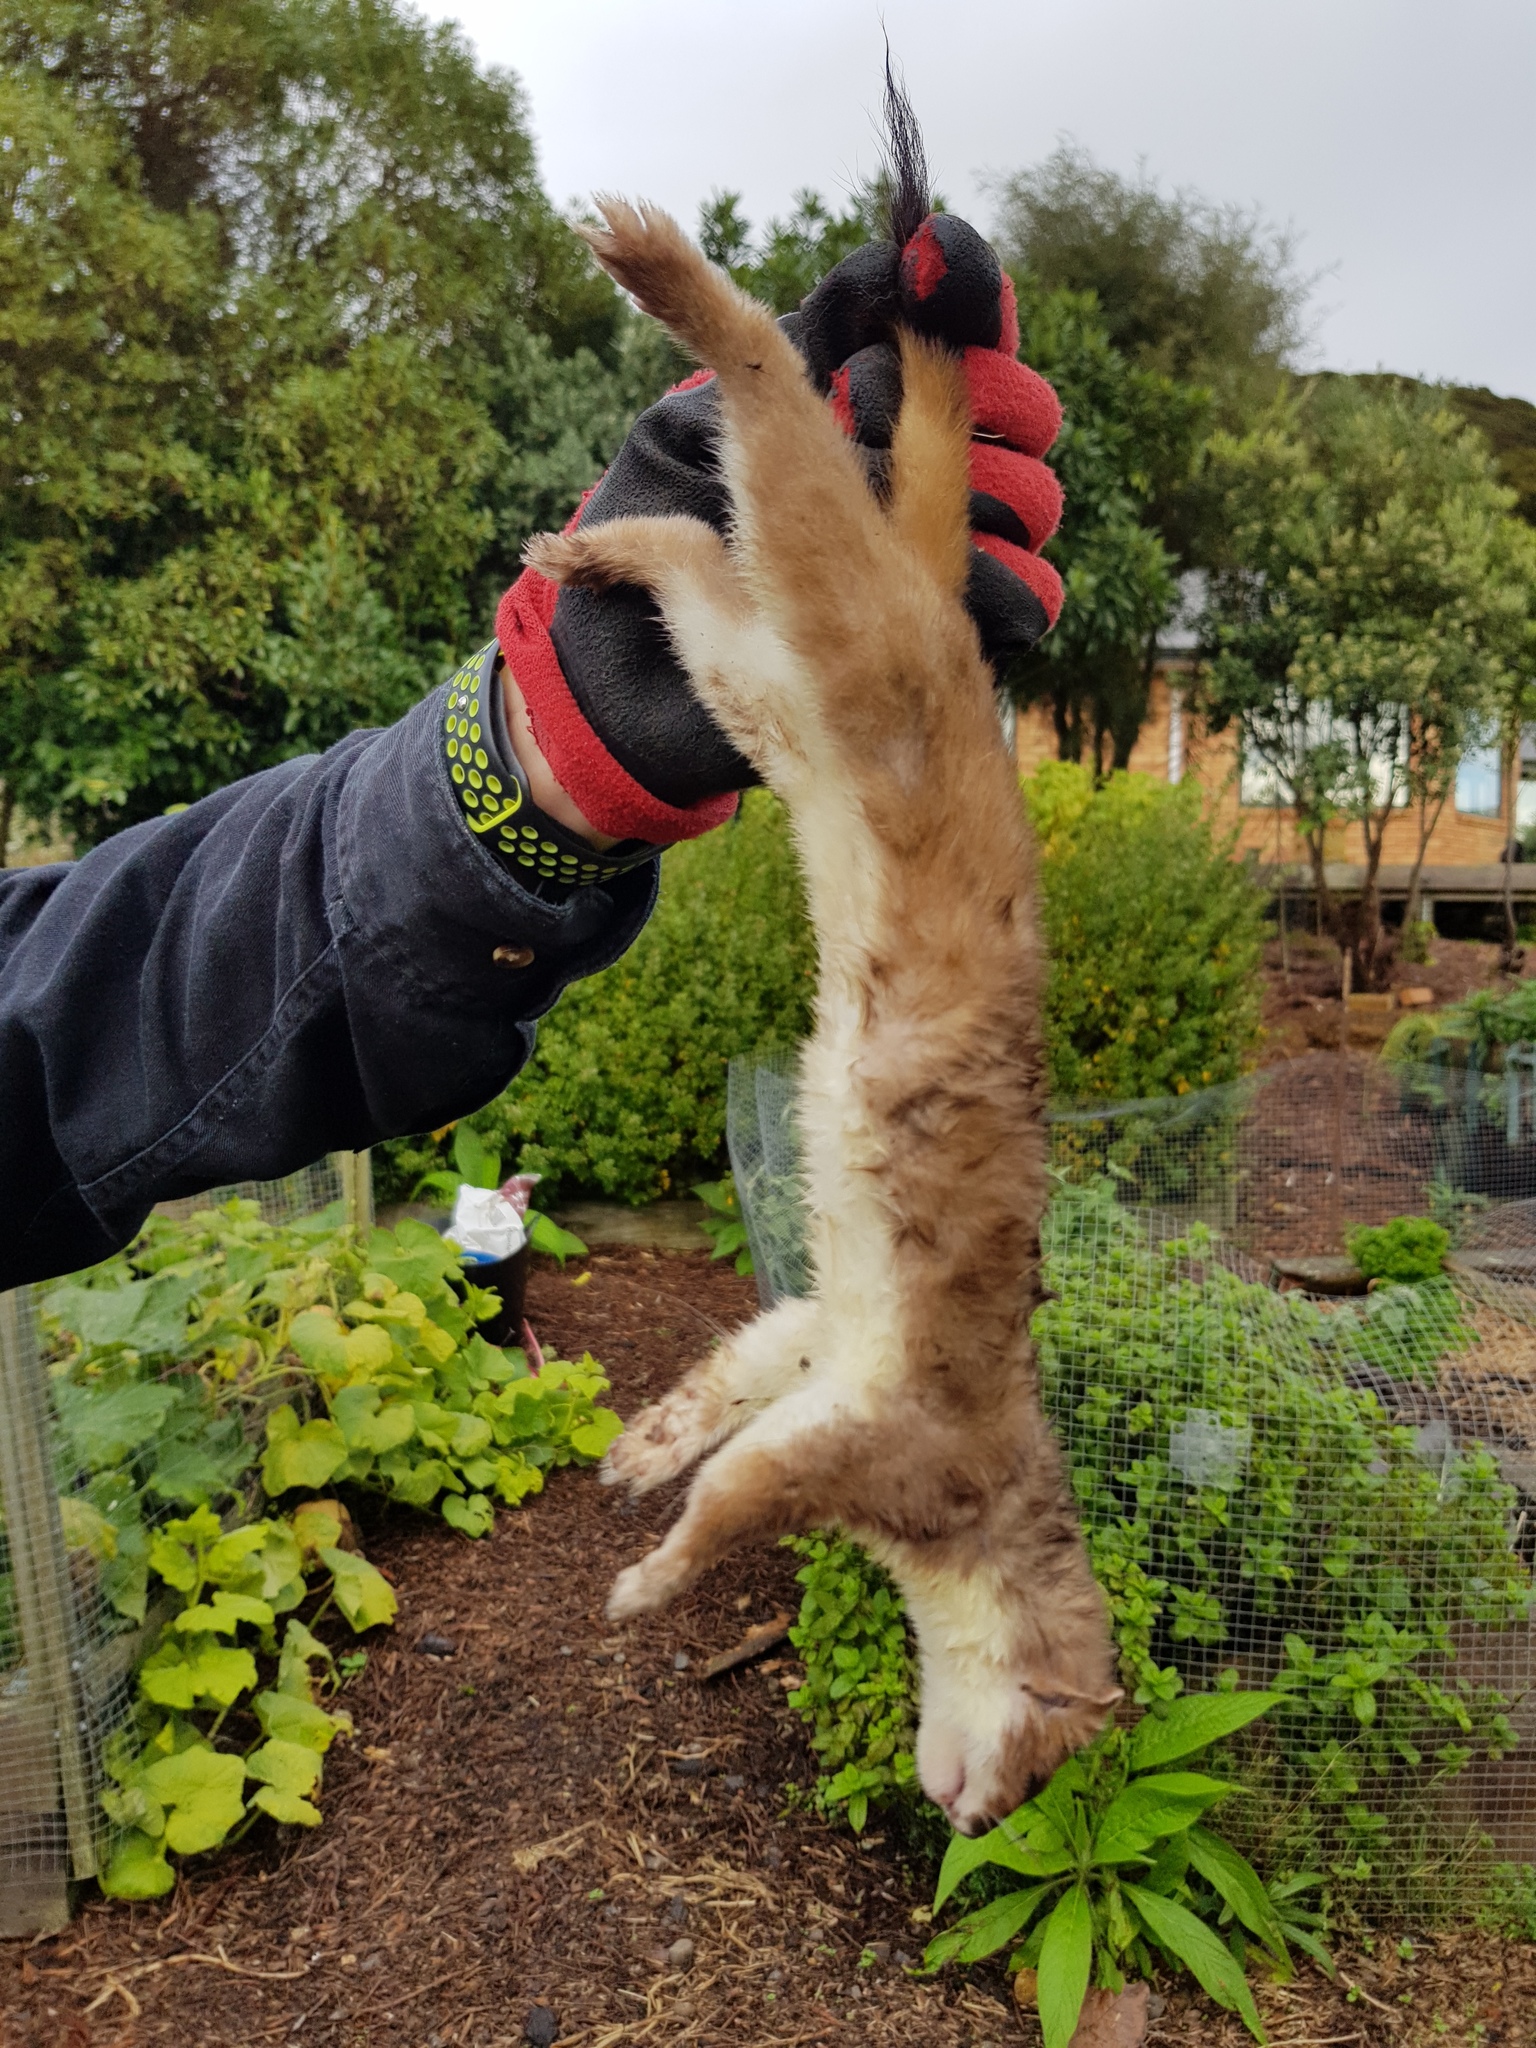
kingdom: Animalia
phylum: Chordata
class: Mammalia
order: Carnivora
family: Mustelidae
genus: Mustela
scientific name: Mustela erminea
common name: Stoat
